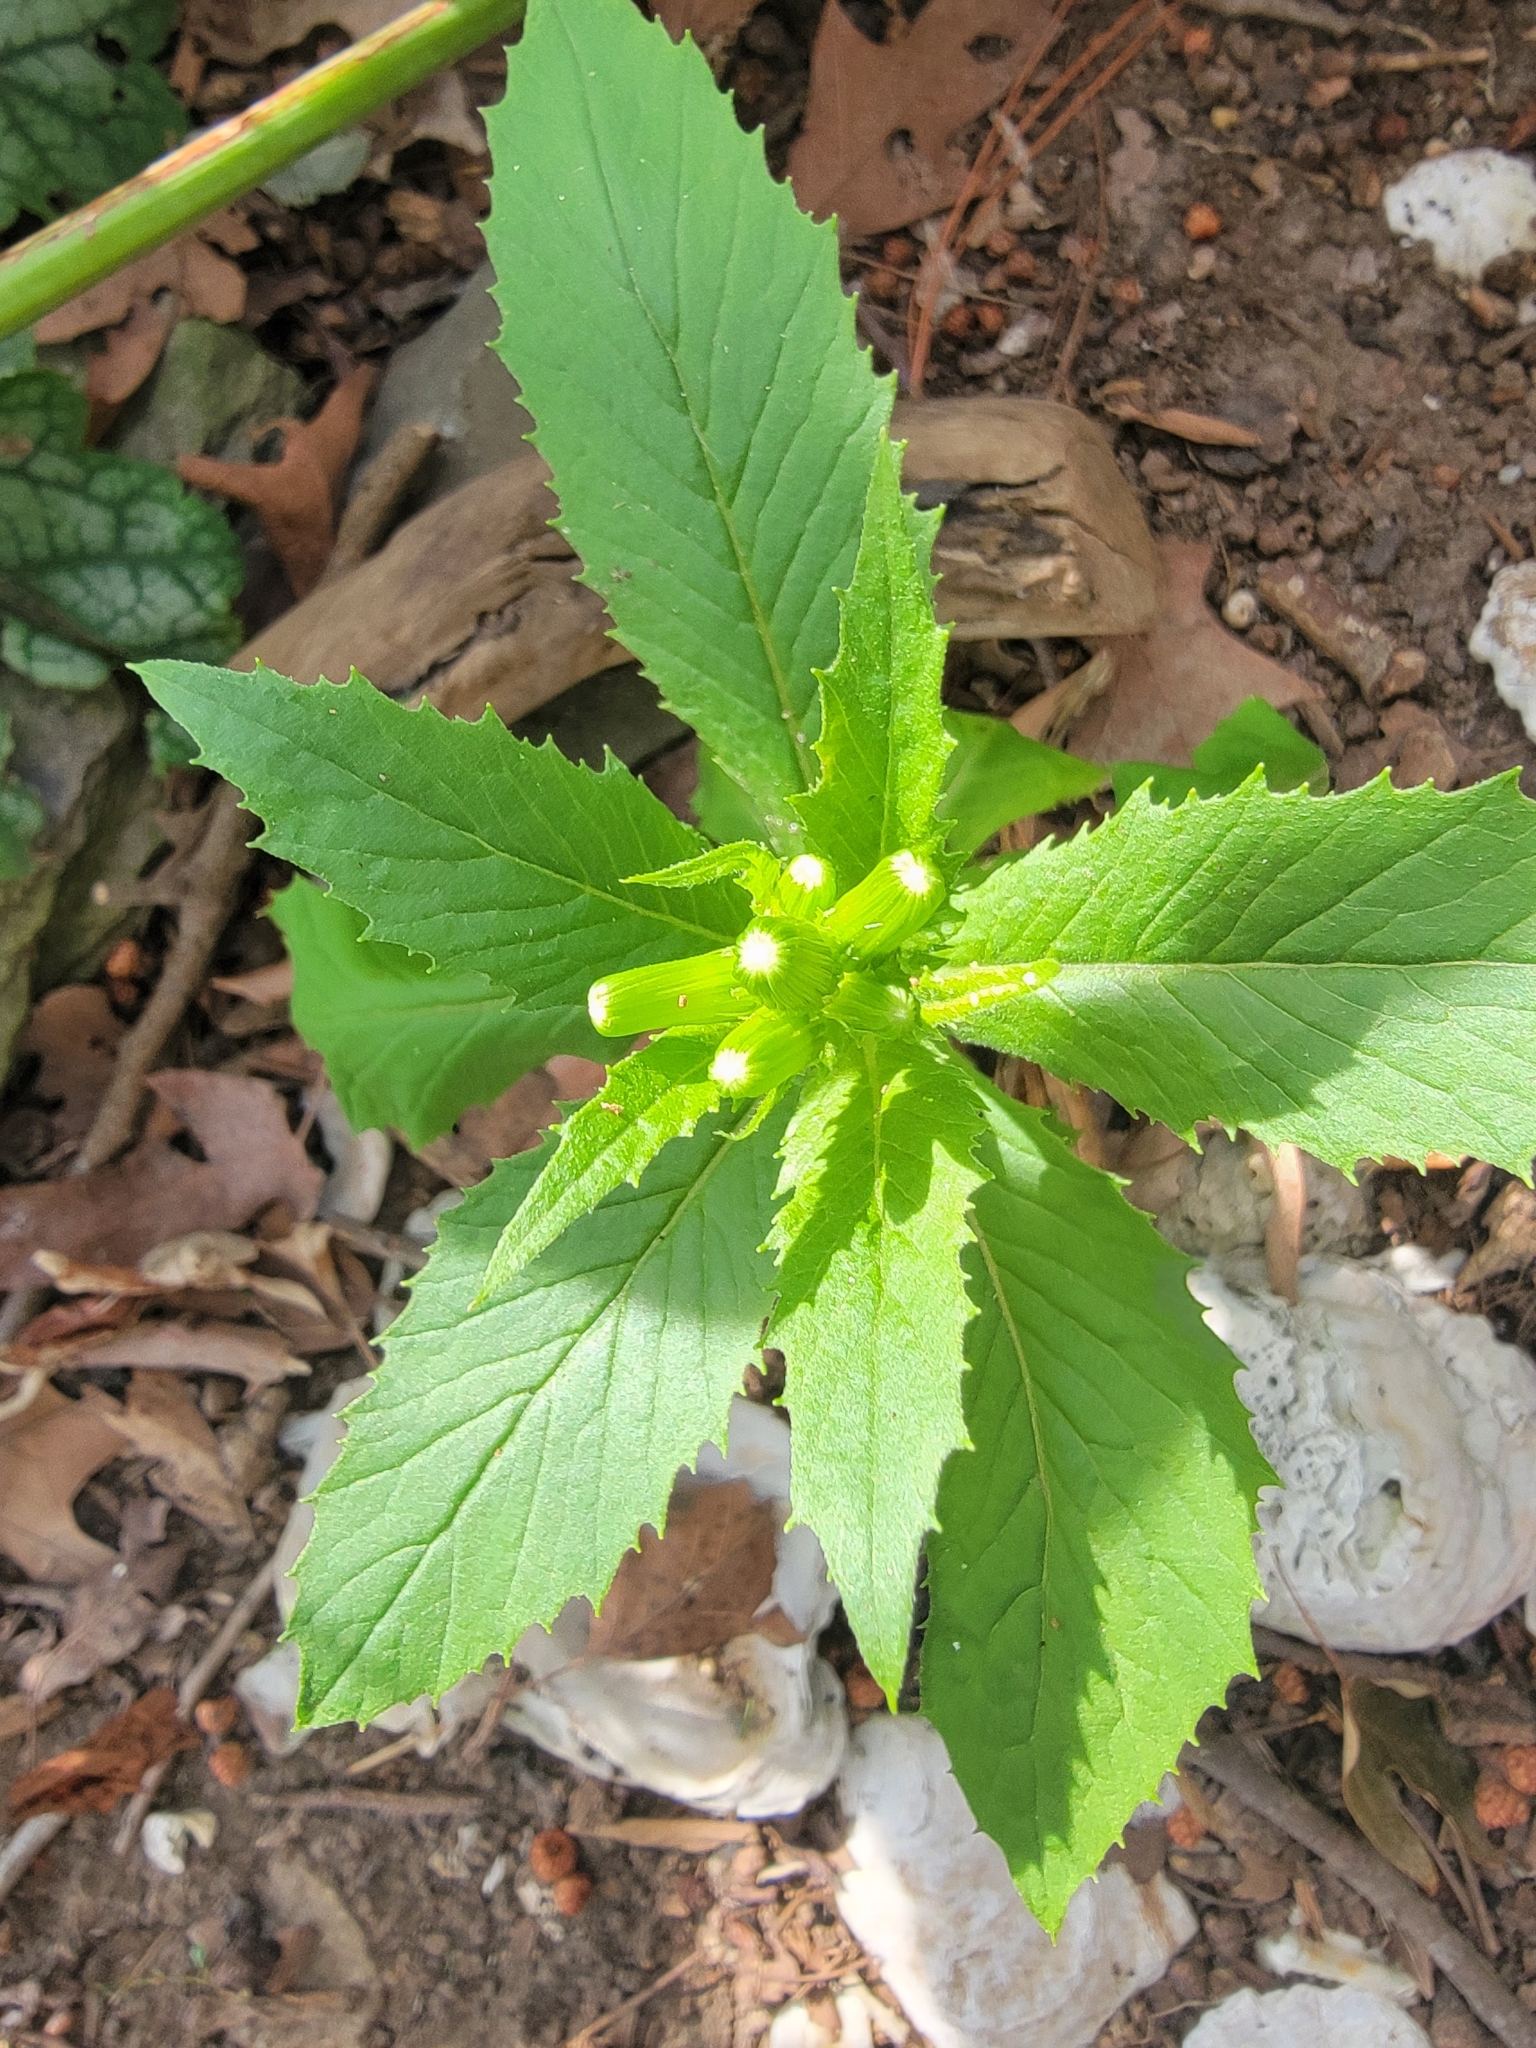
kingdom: Plantae
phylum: Tracheophyta
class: Magnoliopsida
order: Asterales
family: Asteraceae
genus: Erechtites
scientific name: Erechtites hieraciifolius
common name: American burnweed
